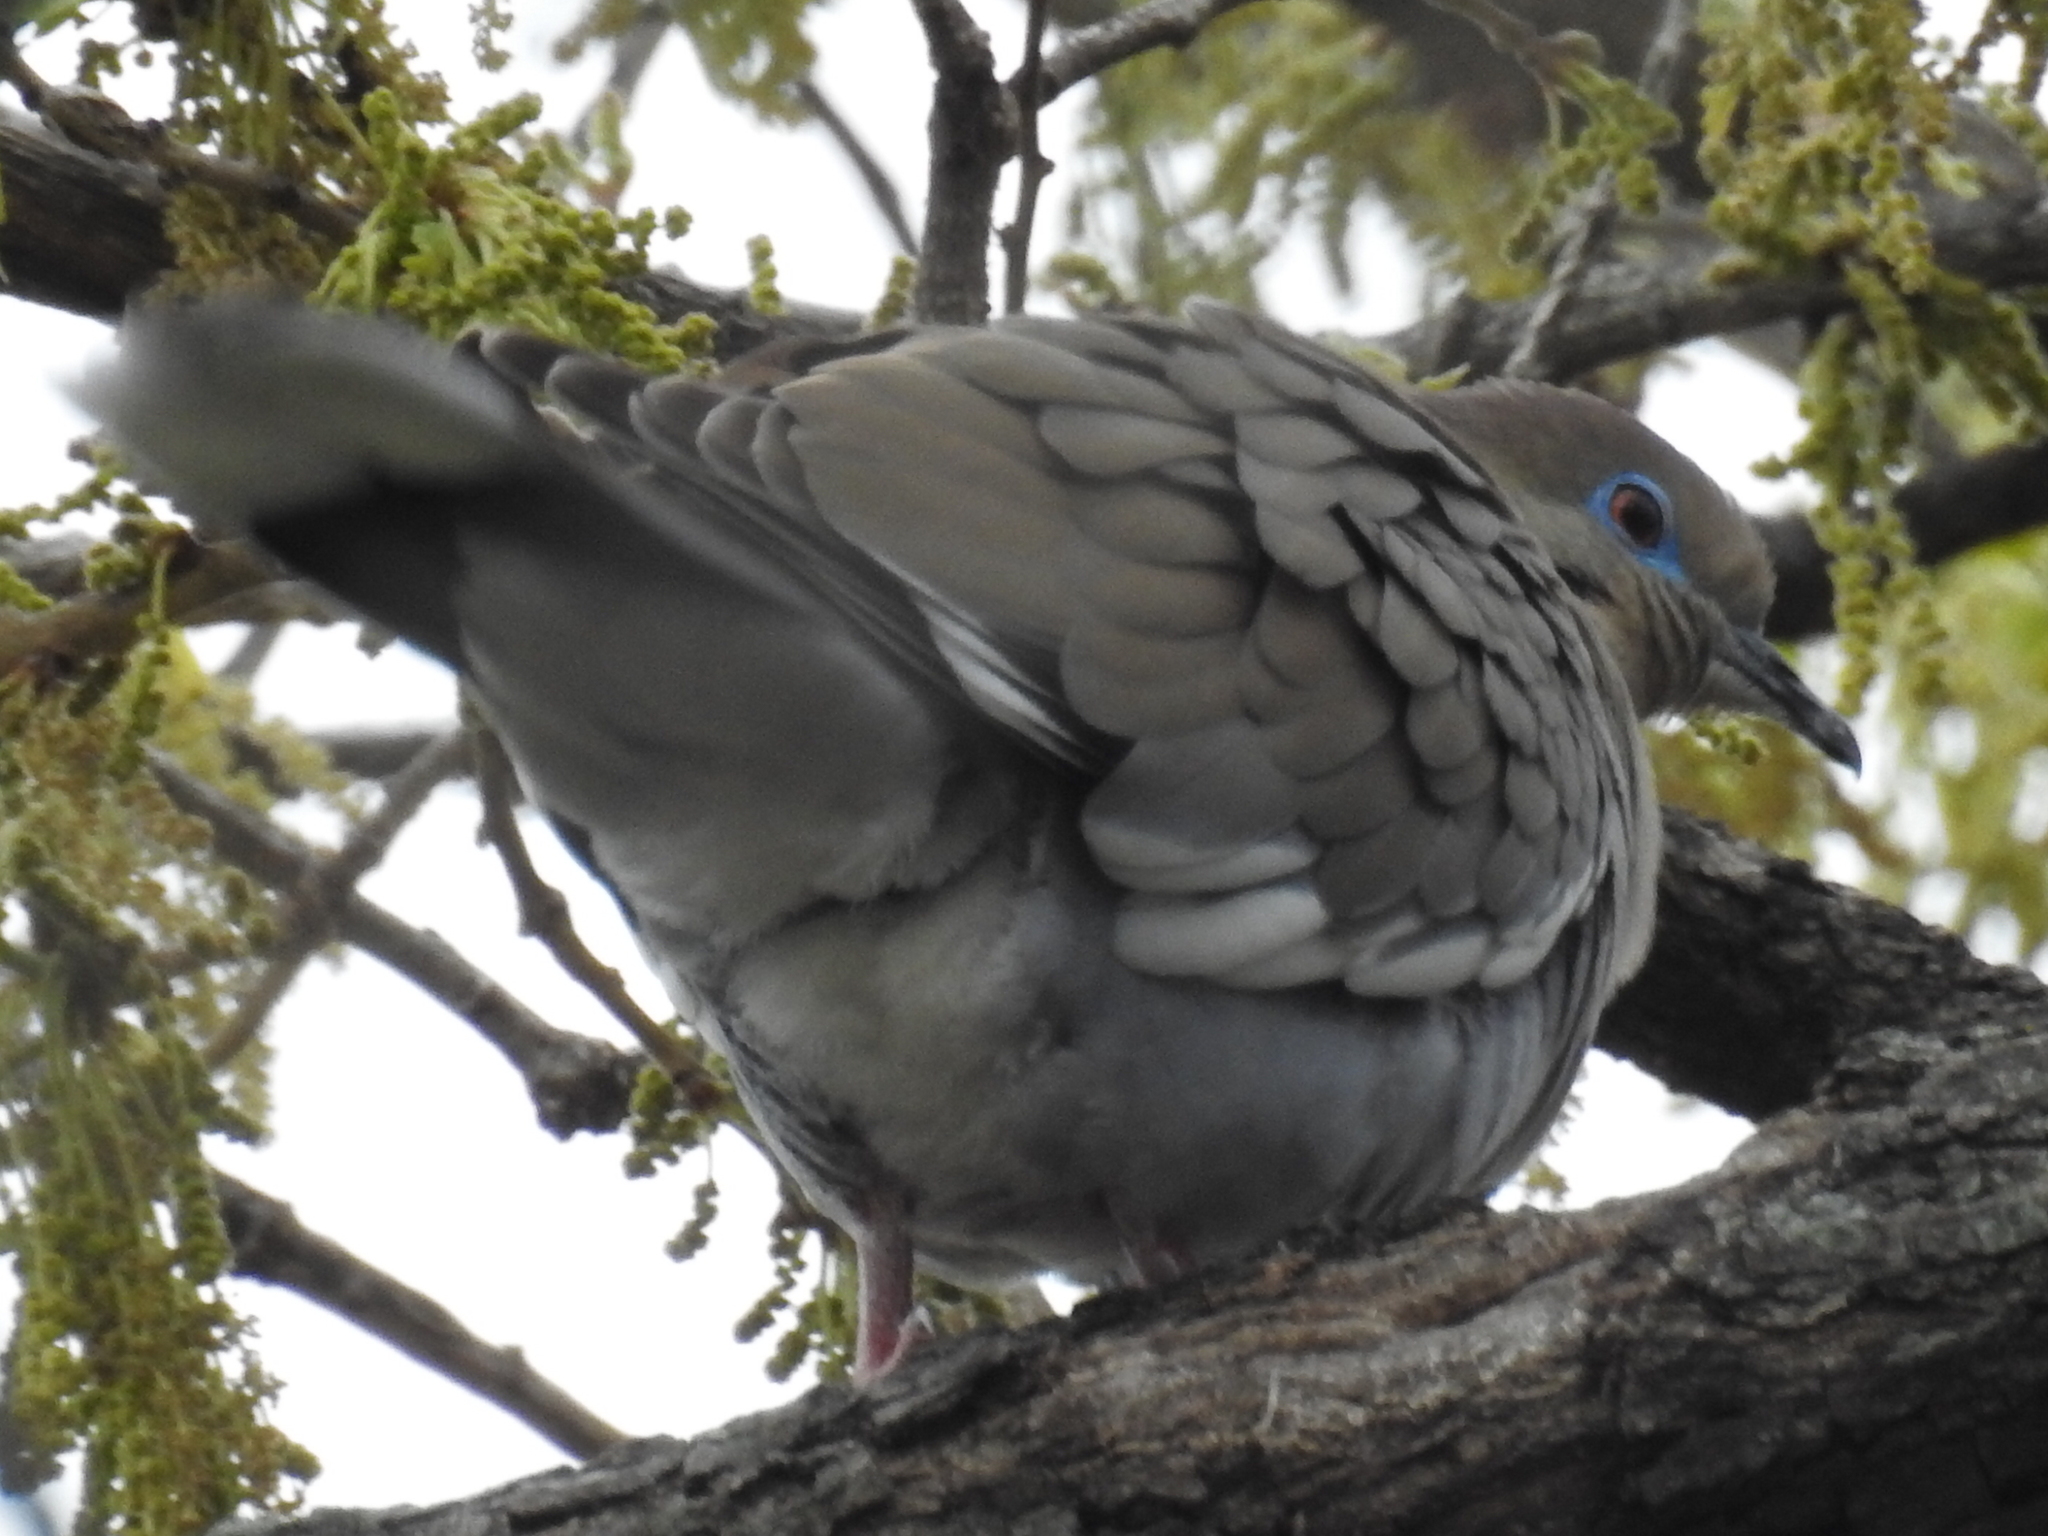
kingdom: Animalia
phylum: Chordata
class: Aves
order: Columbiformes
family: Columbidae
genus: Zenaida
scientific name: Zenaida asiatica
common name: White-winged dove
